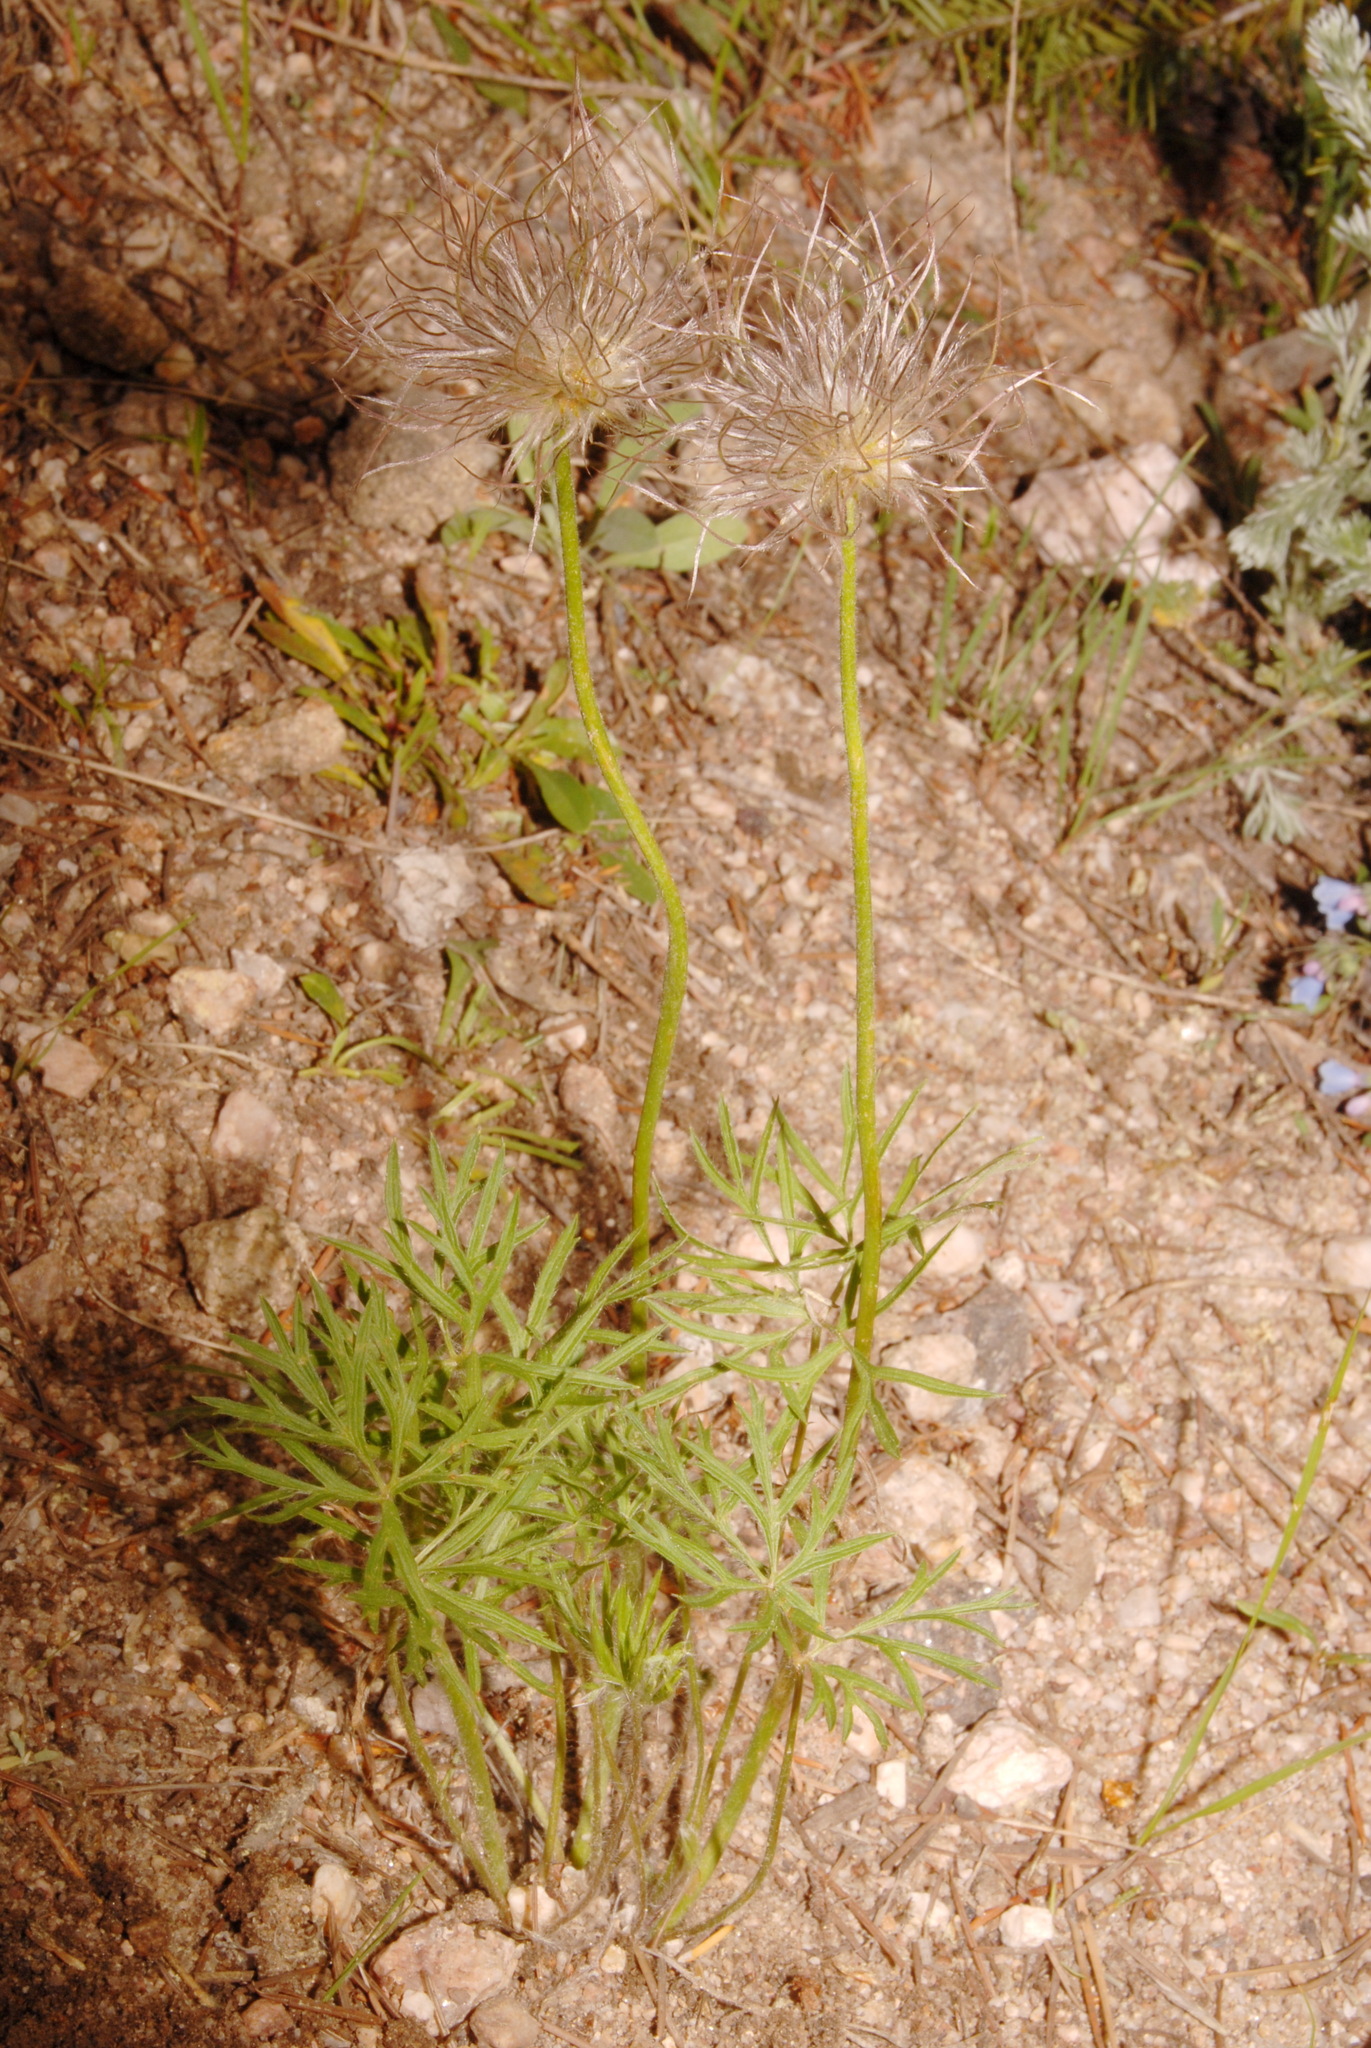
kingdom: Plantae
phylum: Tracheophyta
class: Magnoliopsida
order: Ranunculales
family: Ranunculaceae
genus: Pulsatilla
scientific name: Pulsatilla nuttalliana
